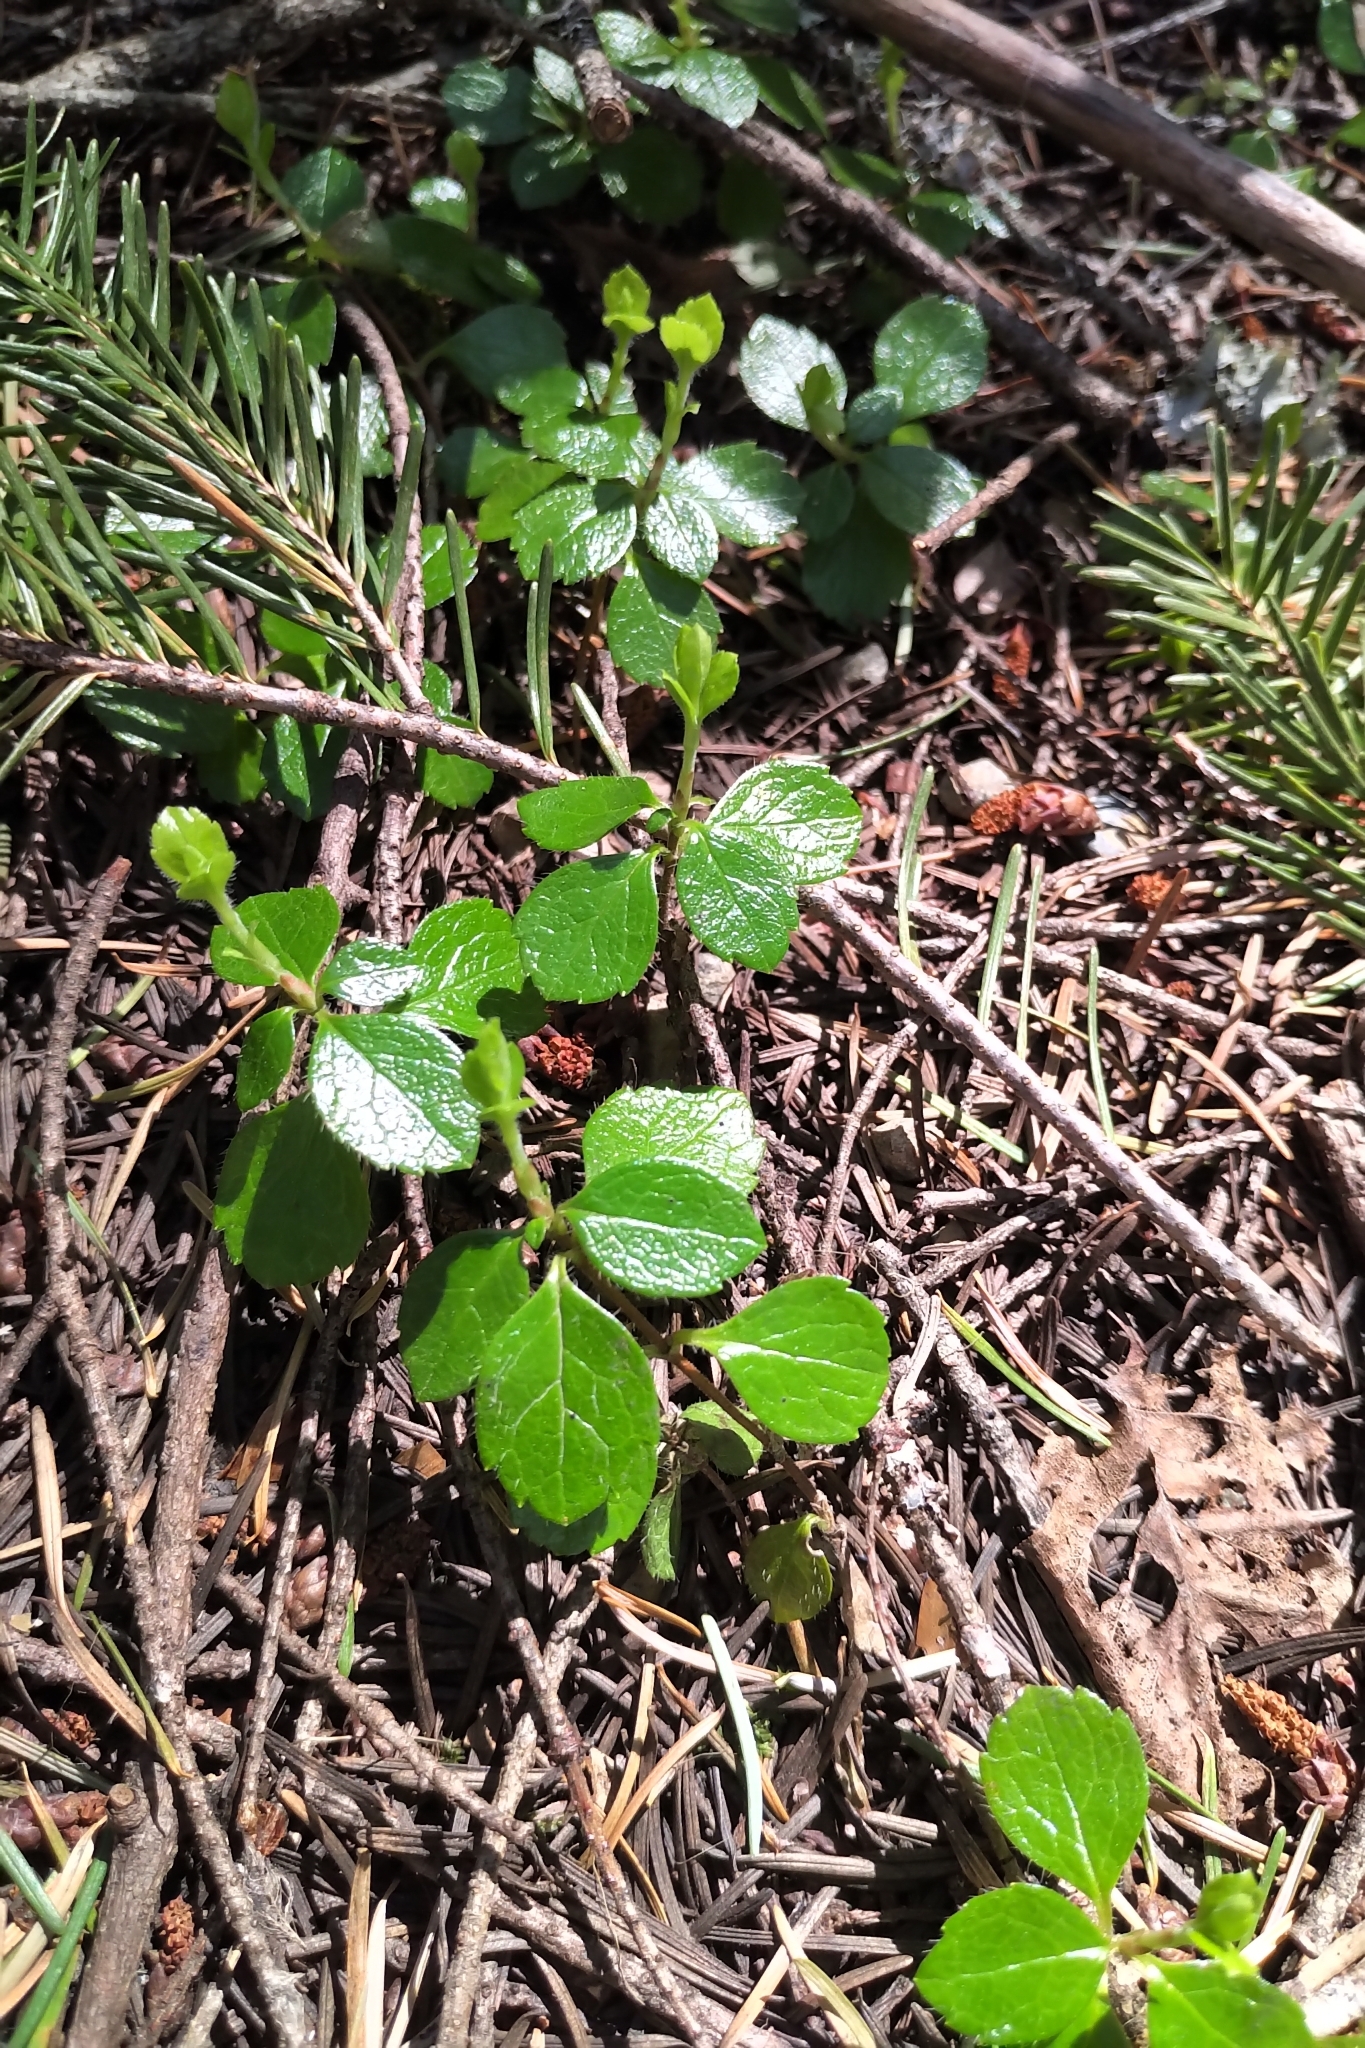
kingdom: Plantae
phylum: Tracheophyta
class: Magnoliopsida
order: Dipsacales
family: Caprifoliaceae
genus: Linnaea
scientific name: Linnaea borealis
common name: Twinflower
